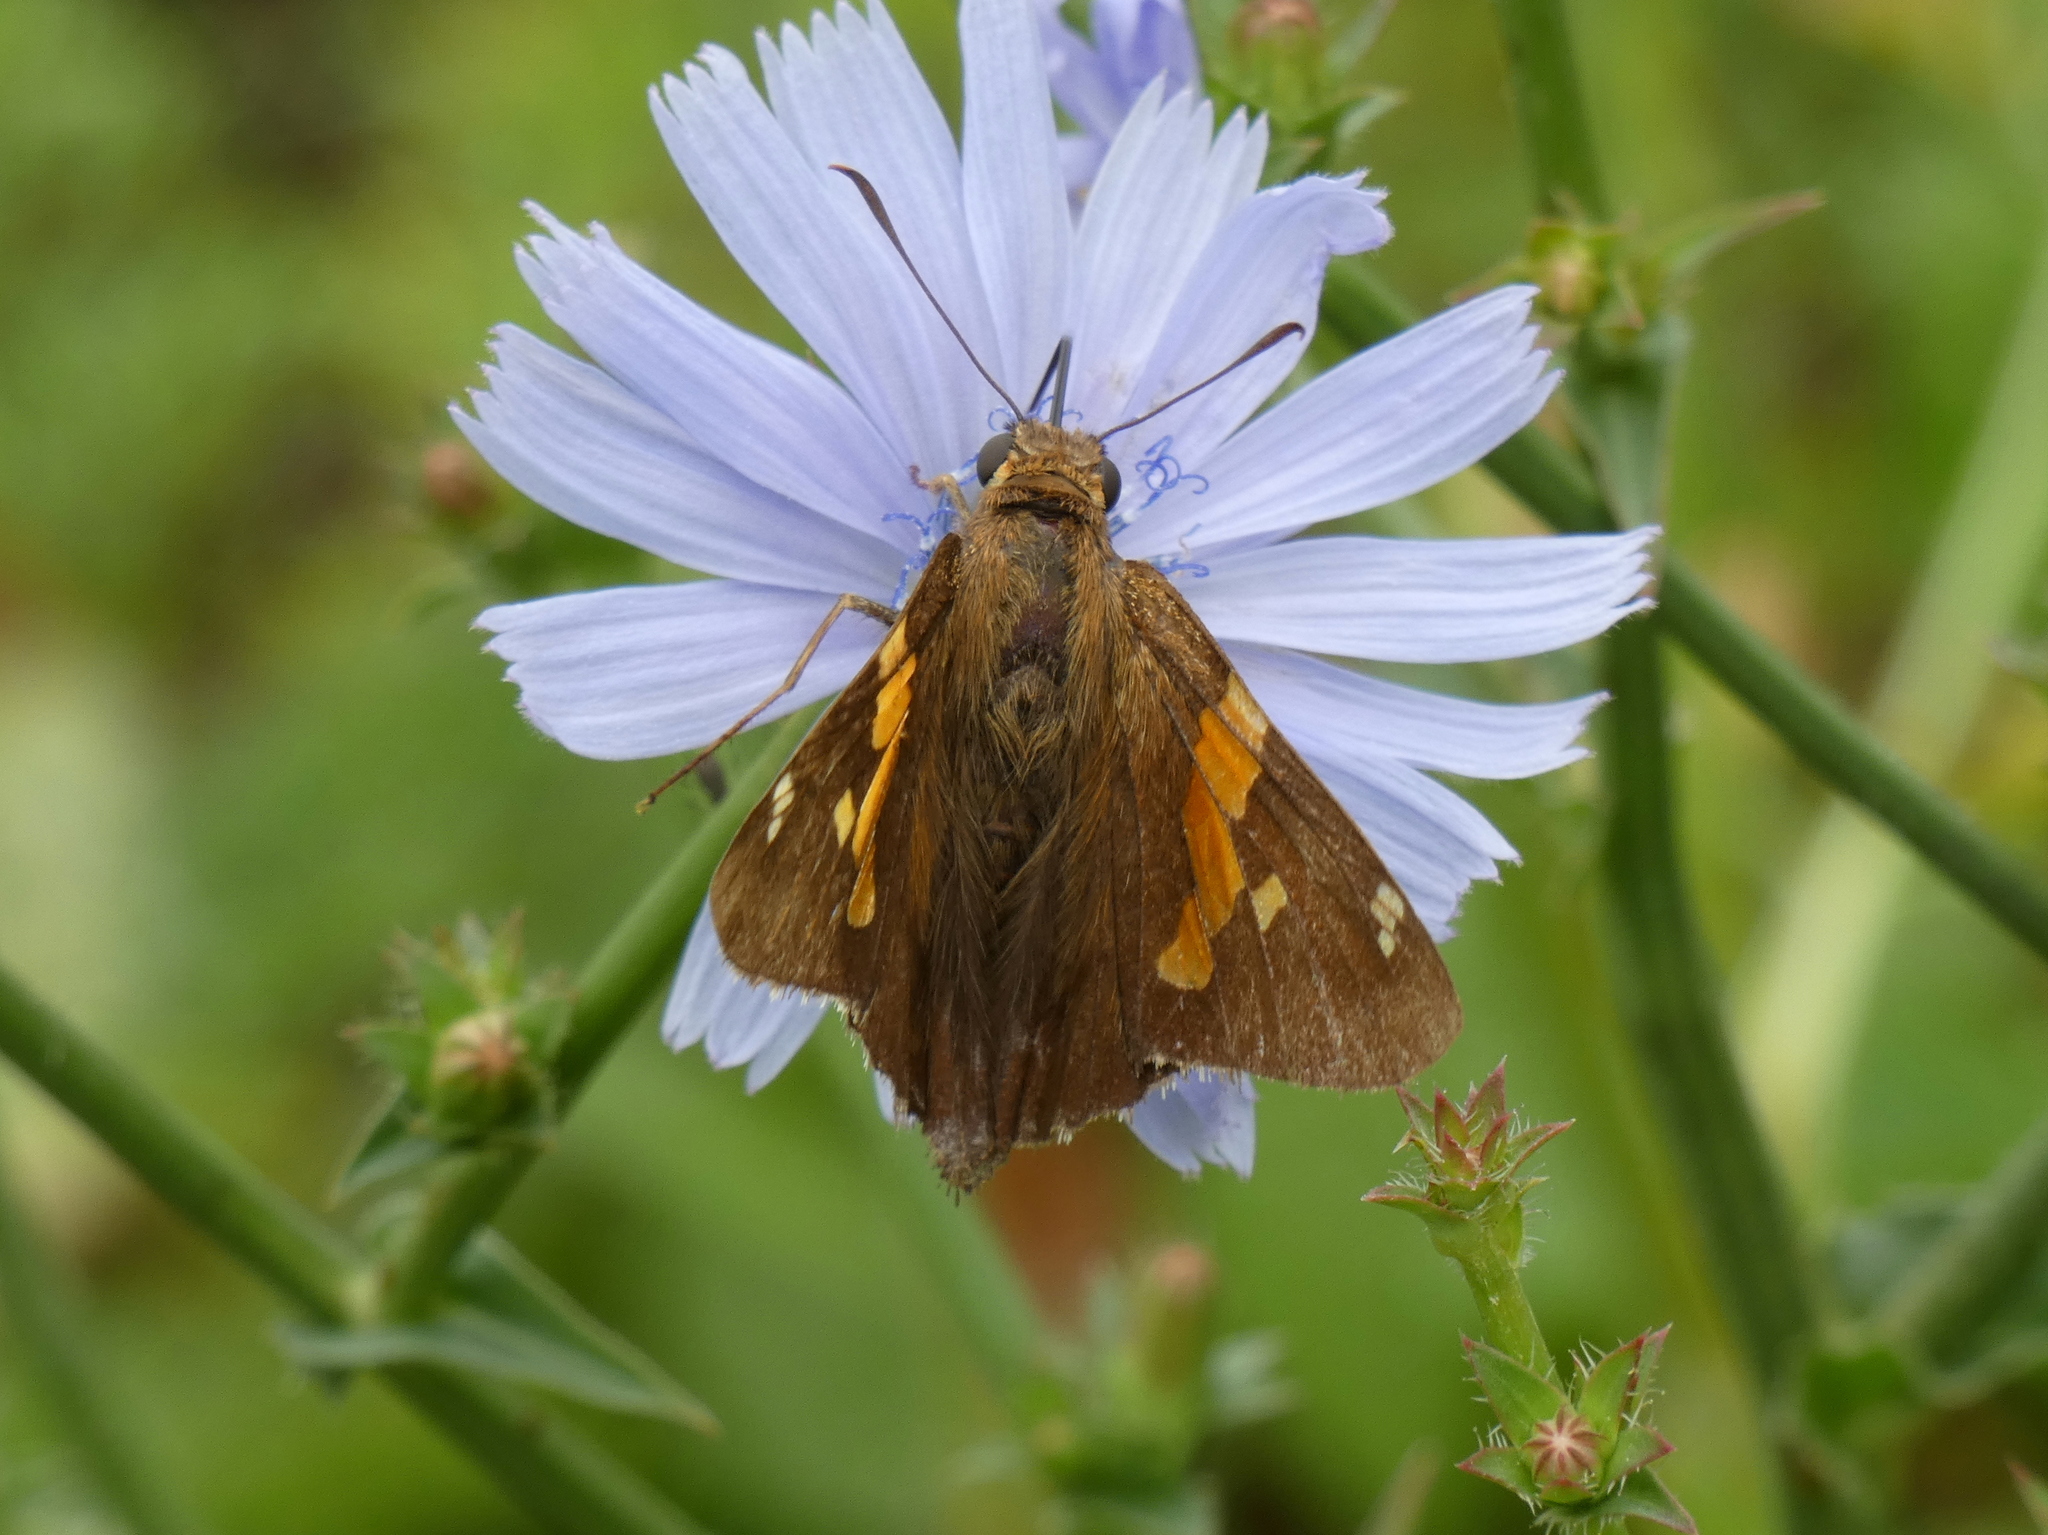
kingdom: Animalia
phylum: Arthropoda
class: Insecta
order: Lepidoptera
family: Hesperiidae
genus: Epargyreus
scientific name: Epargyreus clarus
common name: Silver-spotted skipper
